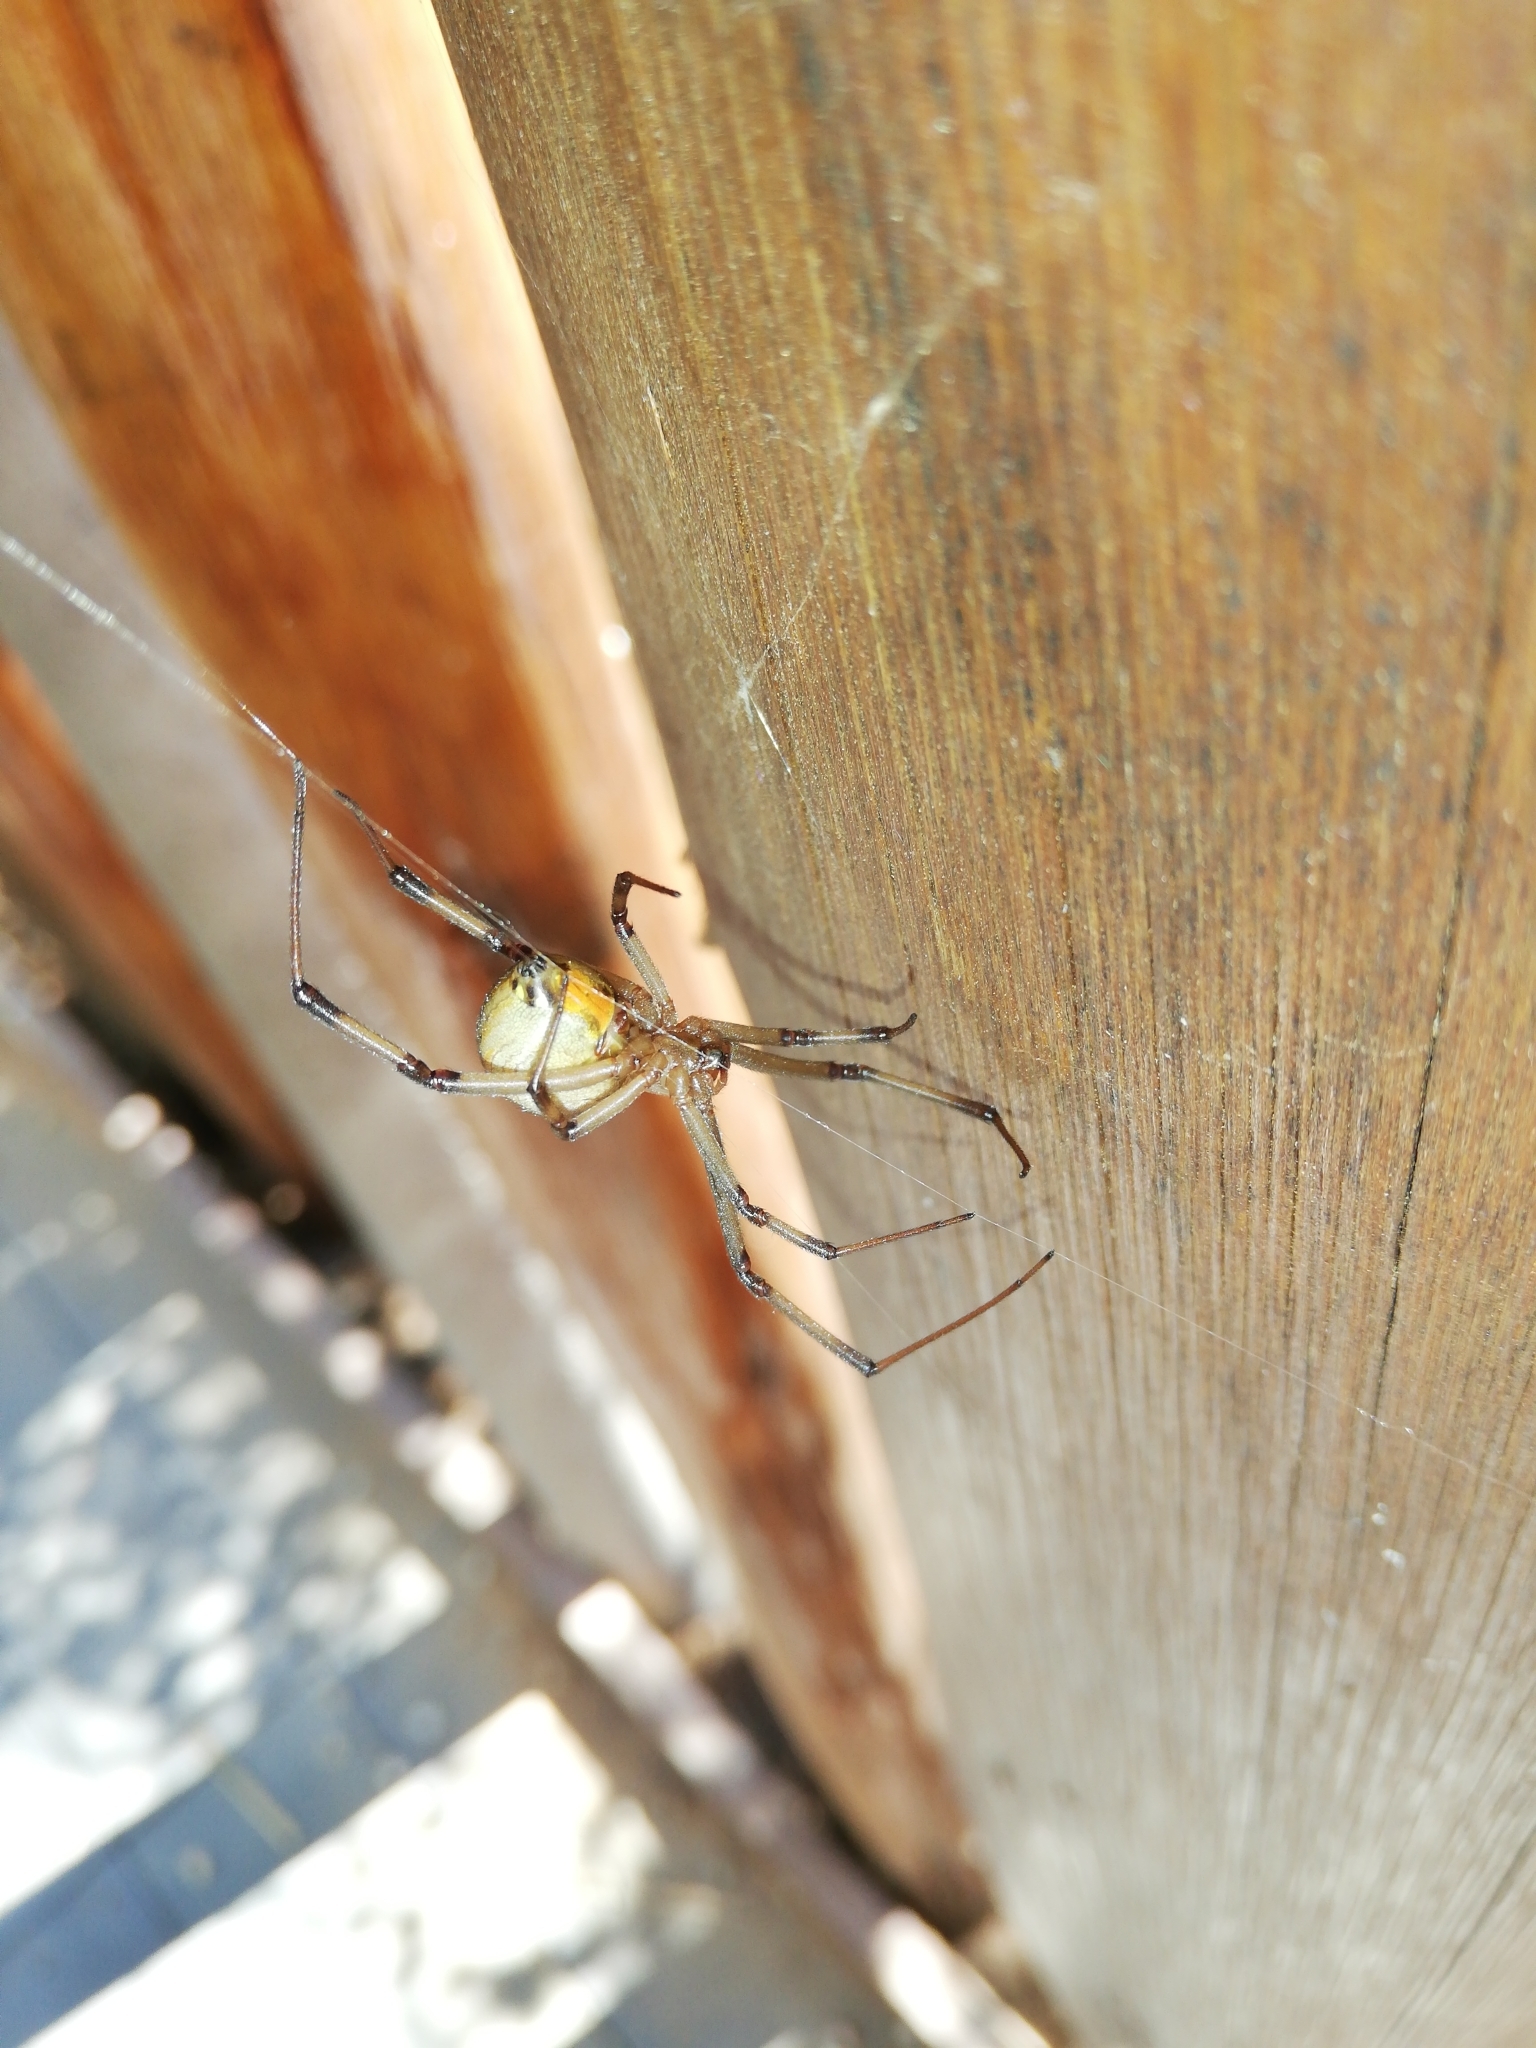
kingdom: Animalia
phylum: Arthropoda
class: Arachnida
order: Araneae
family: Theridiidae
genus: Latrodectus
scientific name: Latrodectus geometricus
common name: Brown widow spider
